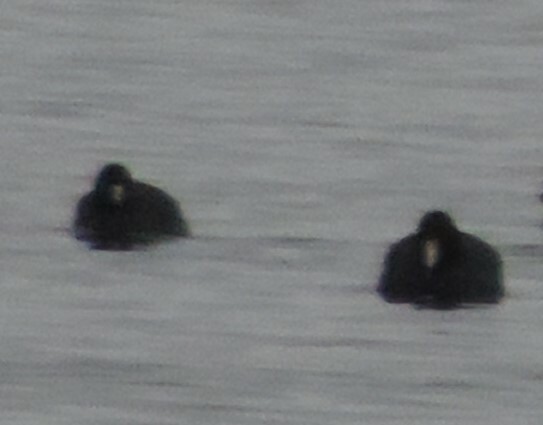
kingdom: Animalia
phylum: Chordata
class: Aves
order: Gruiformes
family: Rallidae
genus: Fulica
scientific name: Fulica americana
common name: American coot
